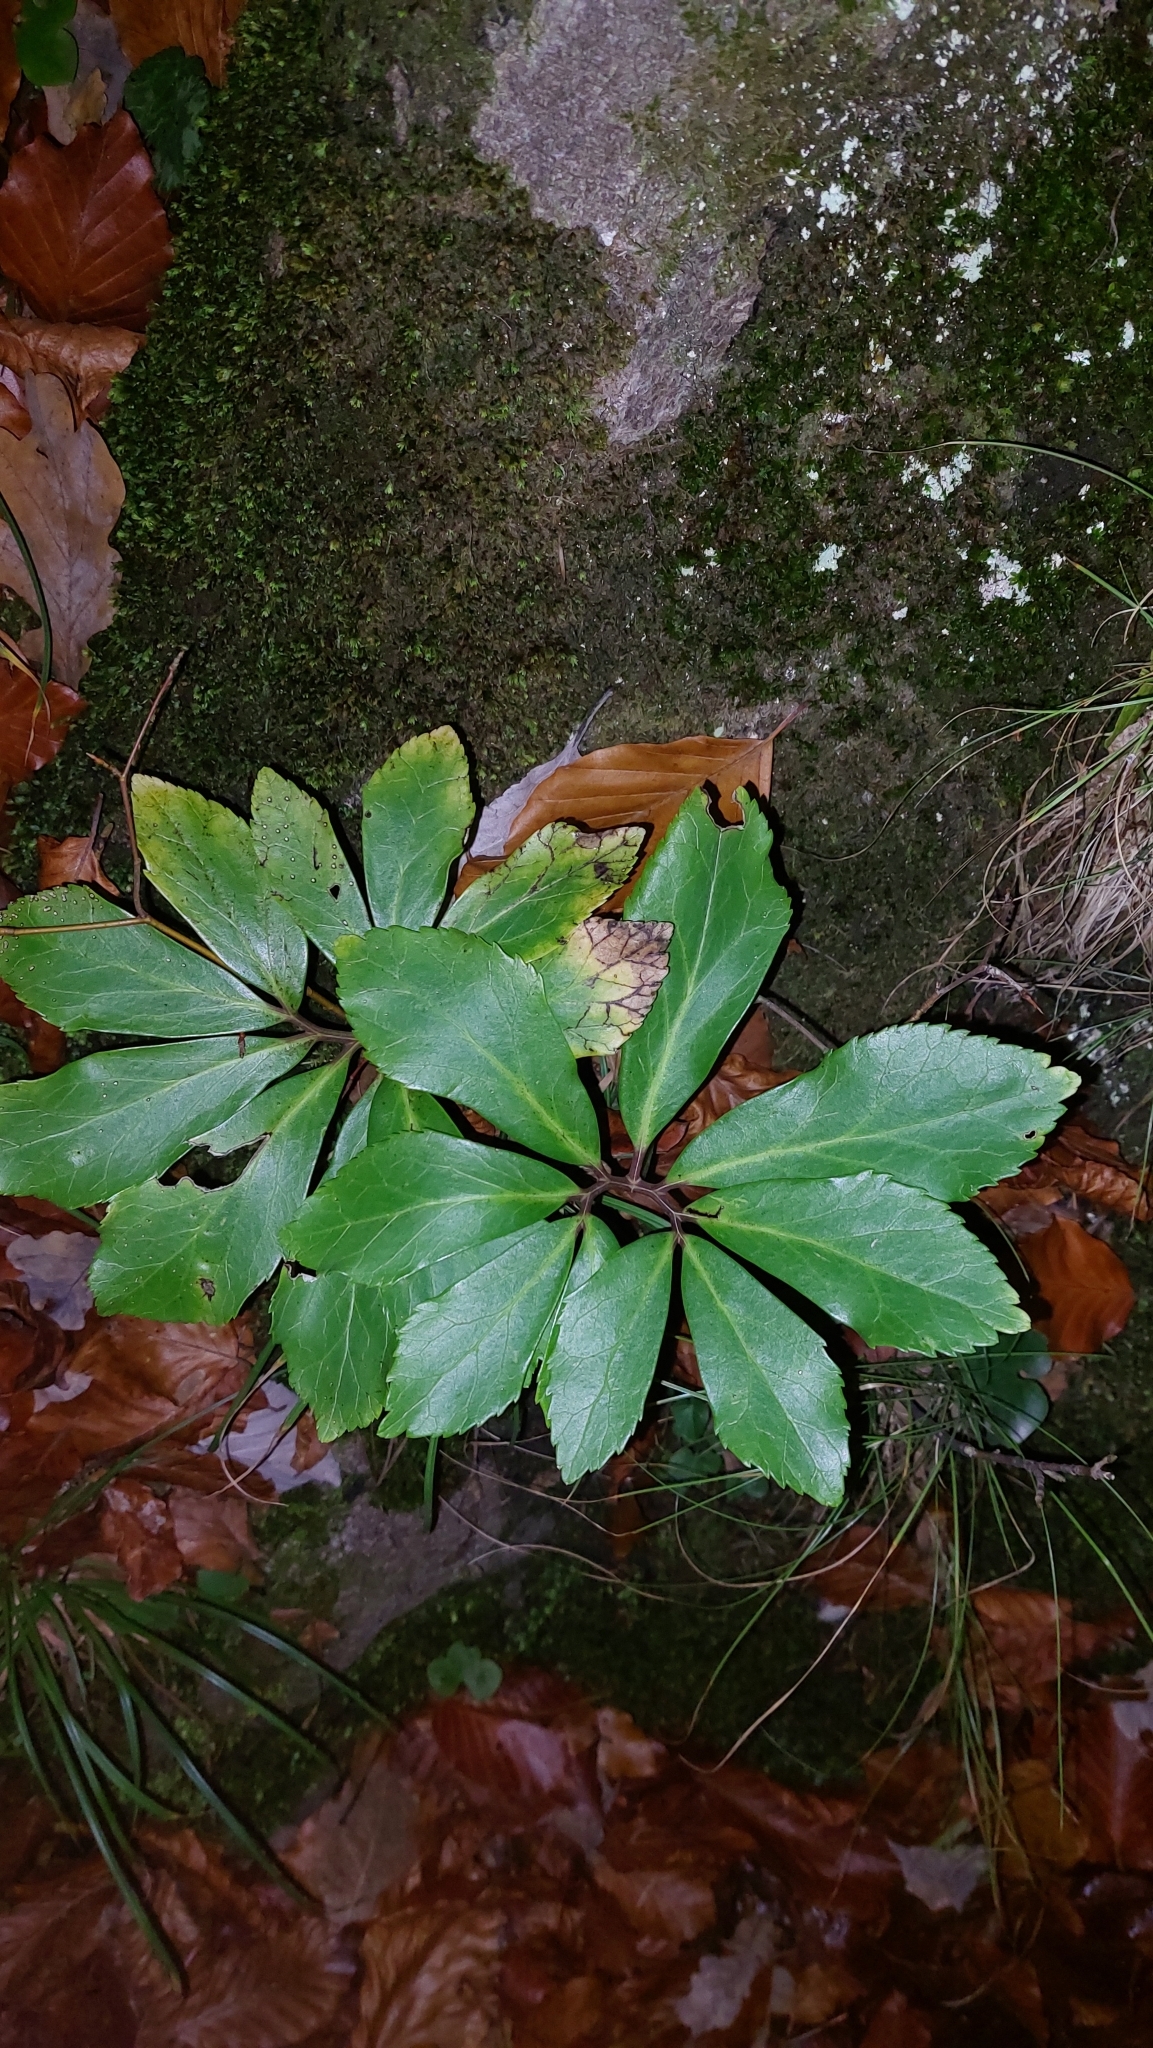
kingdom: Plantae
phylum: Tracheophyta
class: Magnoliopsida
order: Ranunculales
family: Ranunculaceae
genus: Helleborus
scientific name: Helleborus niger
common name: Black hellebore
